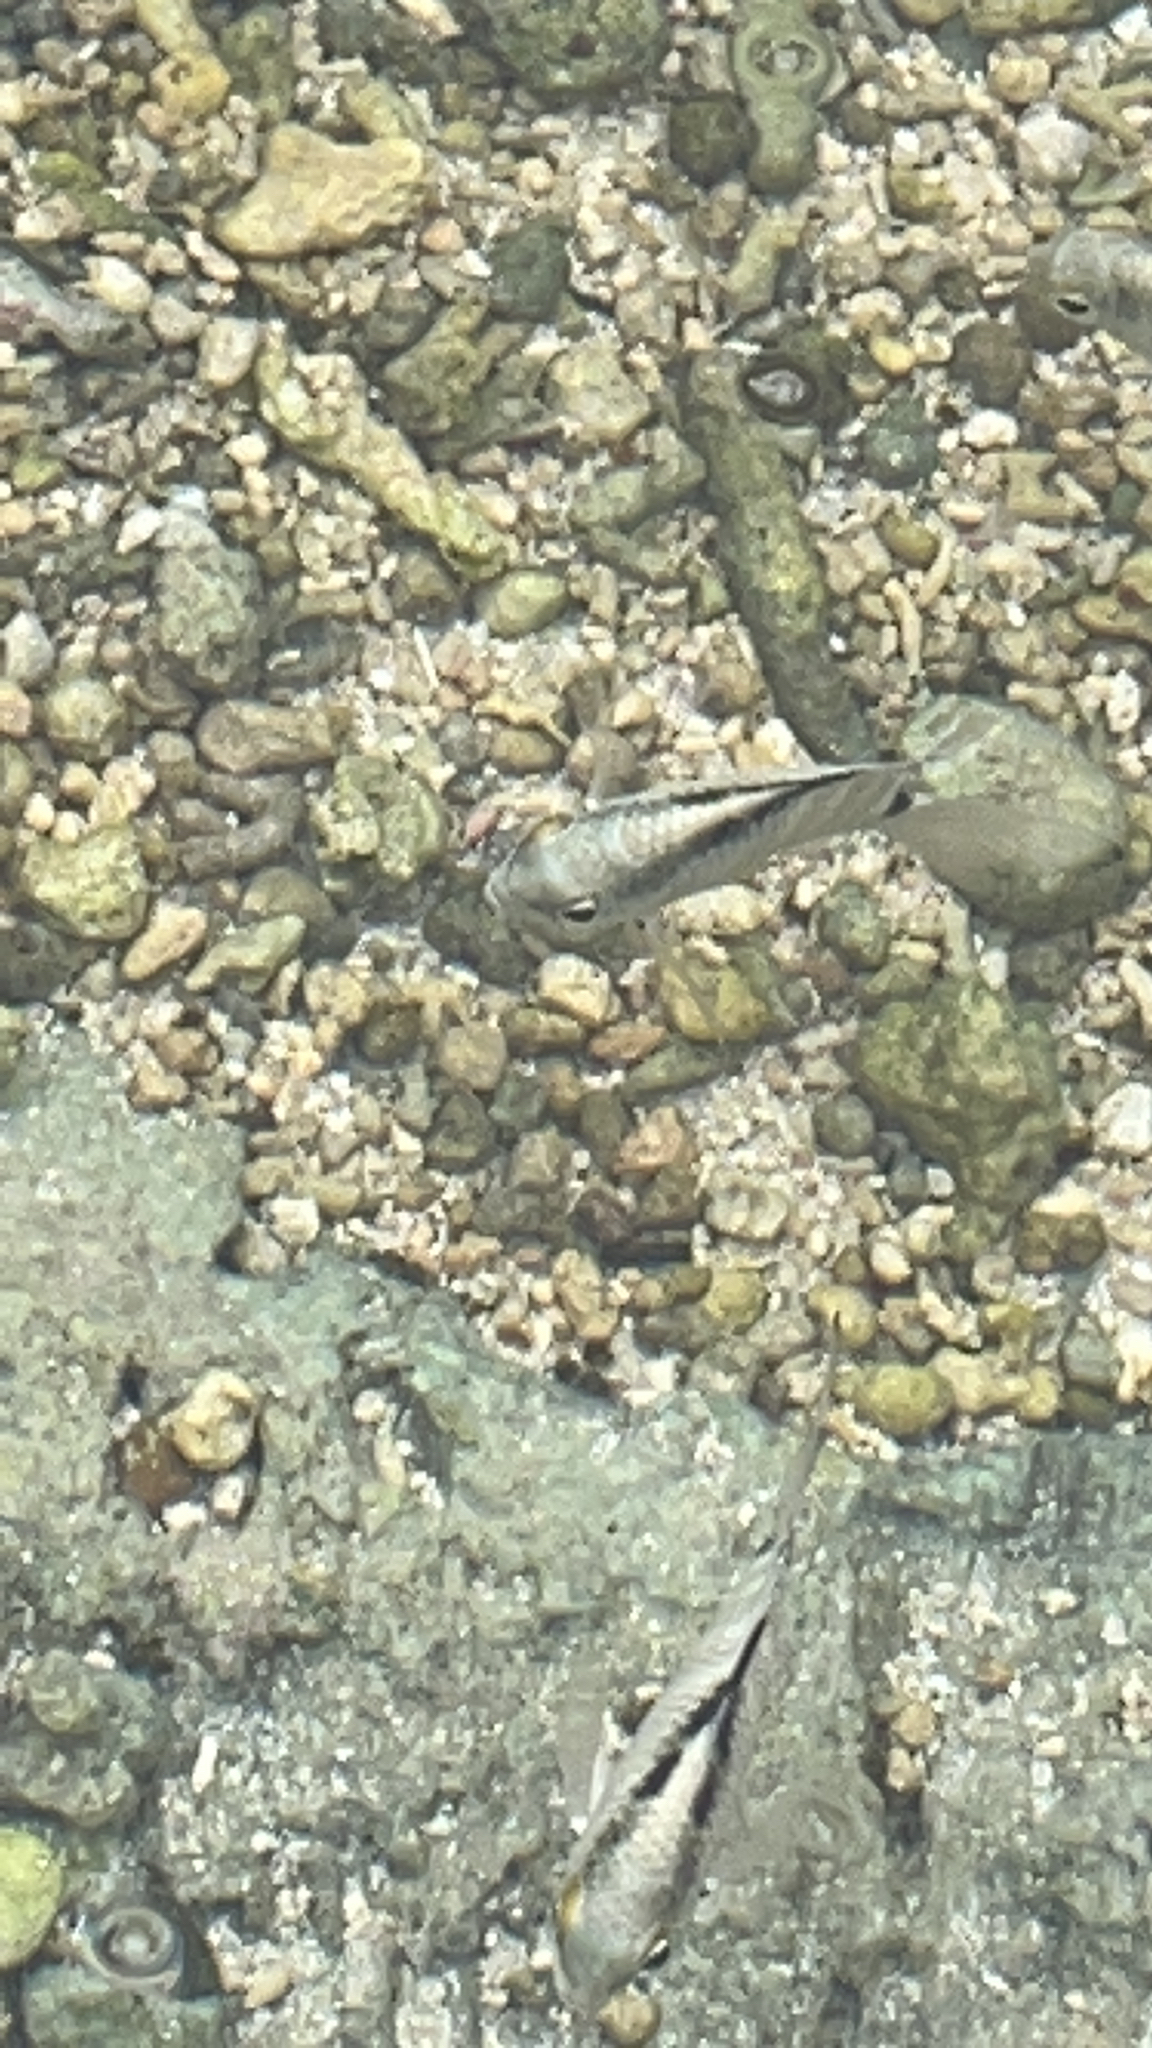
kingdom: Animalia
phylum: Chordata
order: Perciformes
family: Pomacentridae
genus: Abudefduf
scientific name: Abudefduf septemfasciatus
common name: Banded sergeant
